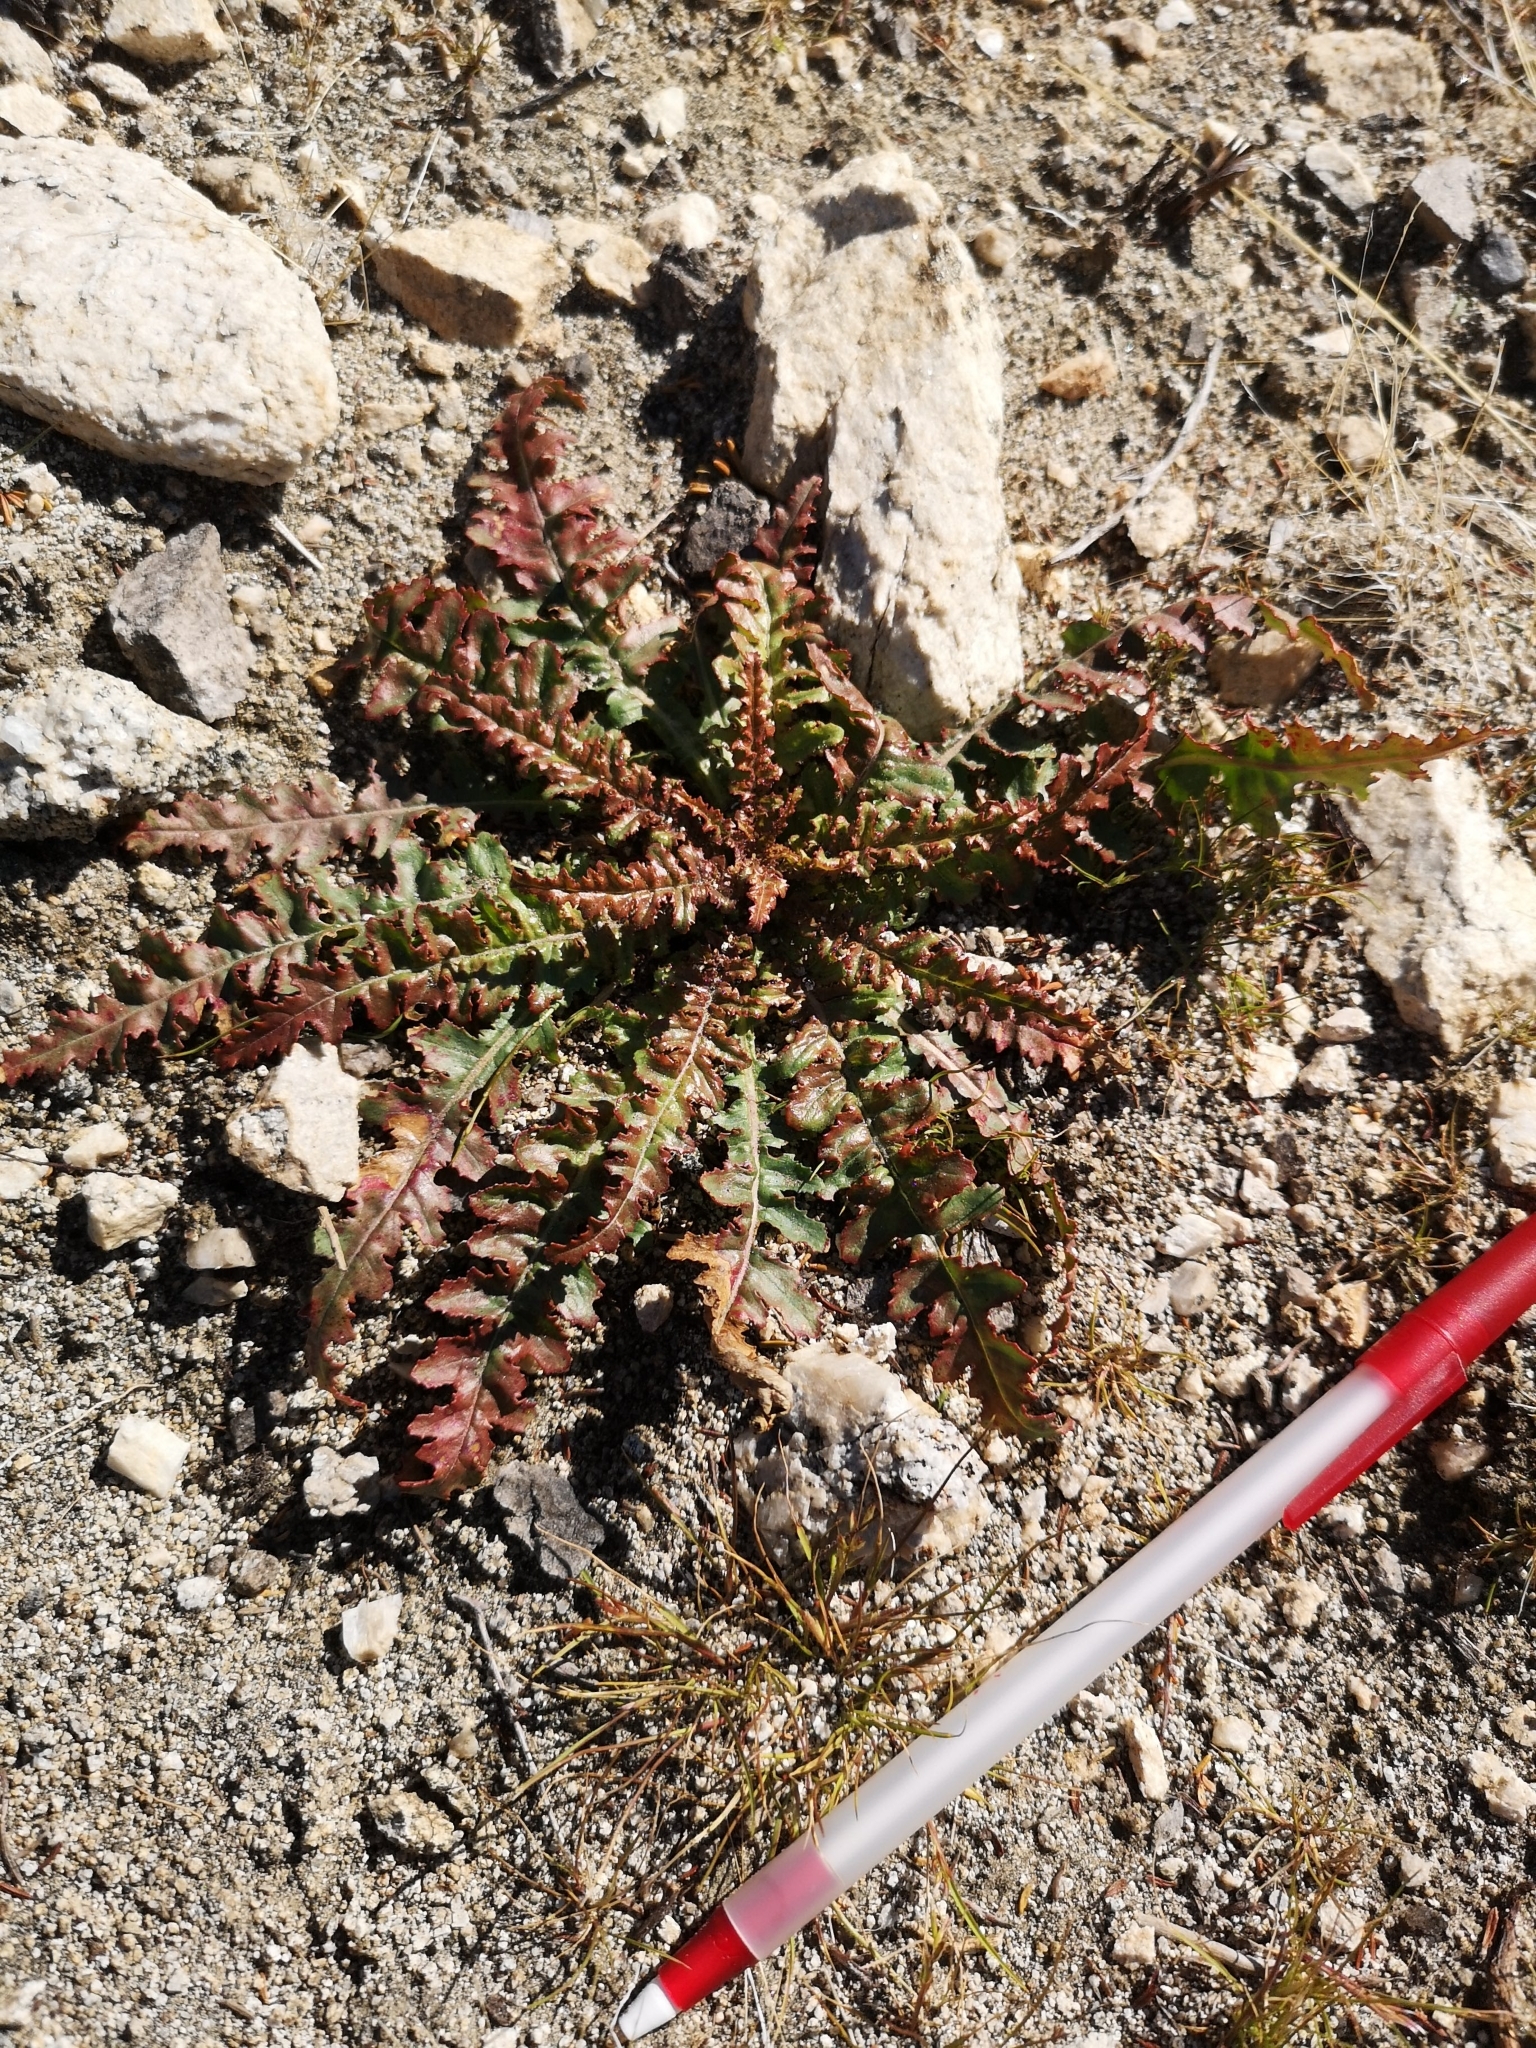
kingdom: Plantae
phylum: Tracheophyta
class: Magnoliopsida
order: Myrtales
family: Onagraceae
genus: Eulobus
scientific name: Eulobus californicus
